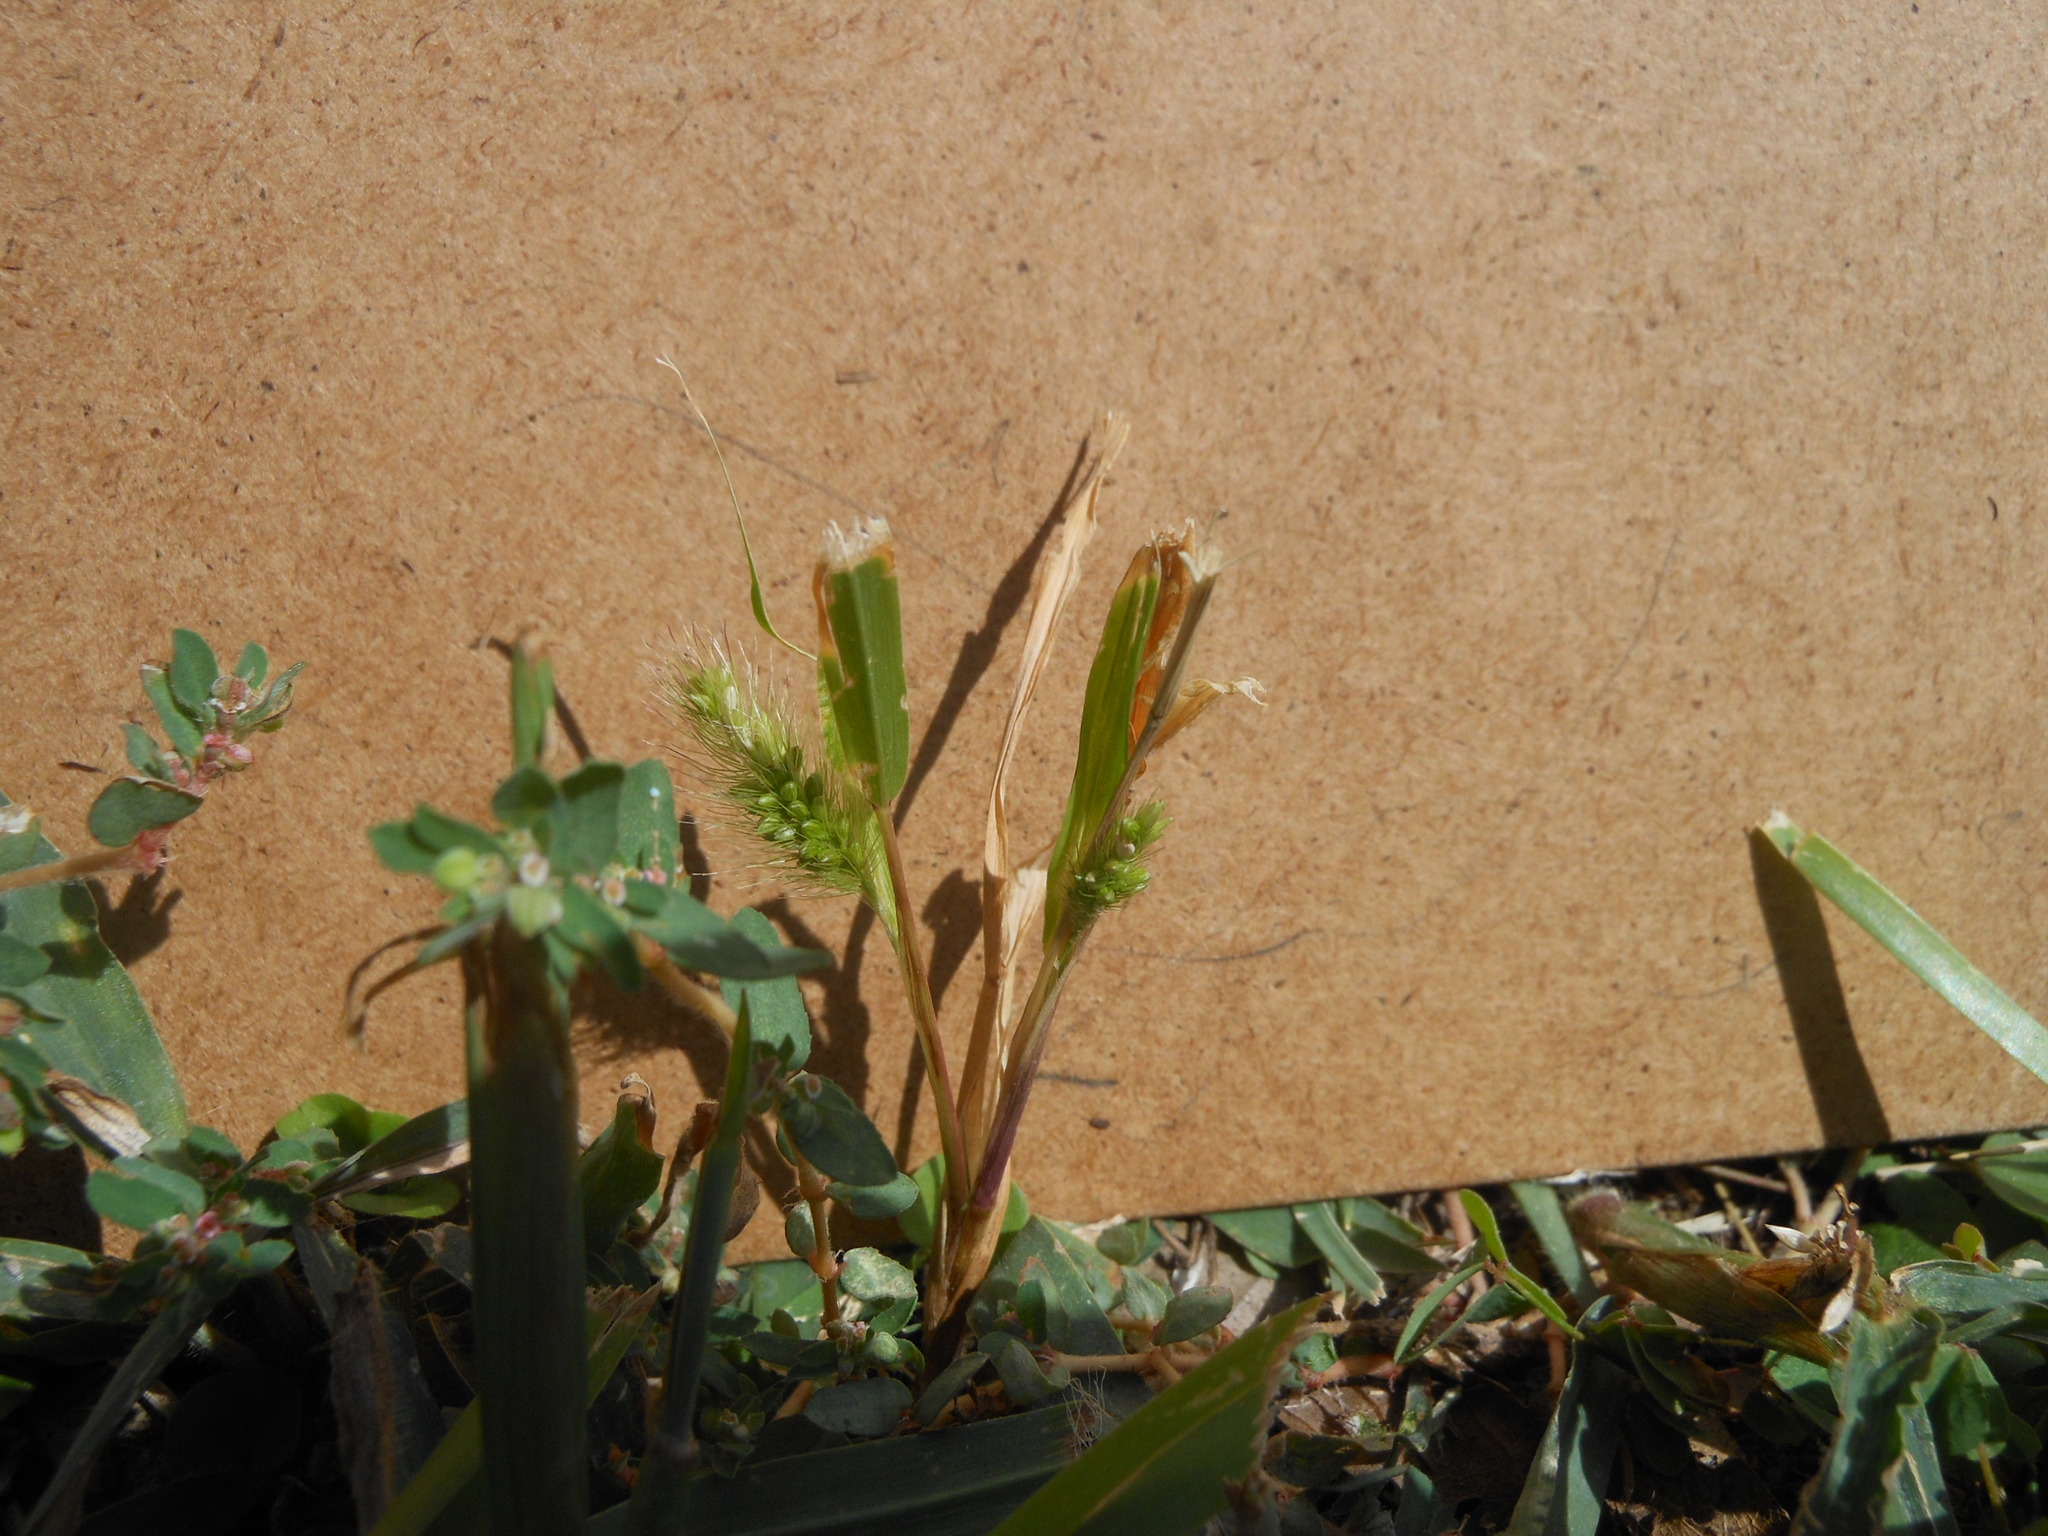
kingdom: Plantae
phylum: Tracheophyta
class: Liliopsida
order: Poales
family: Poaceae
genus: Setaria
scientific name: Setaria viridis
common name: Green bristlegrass
